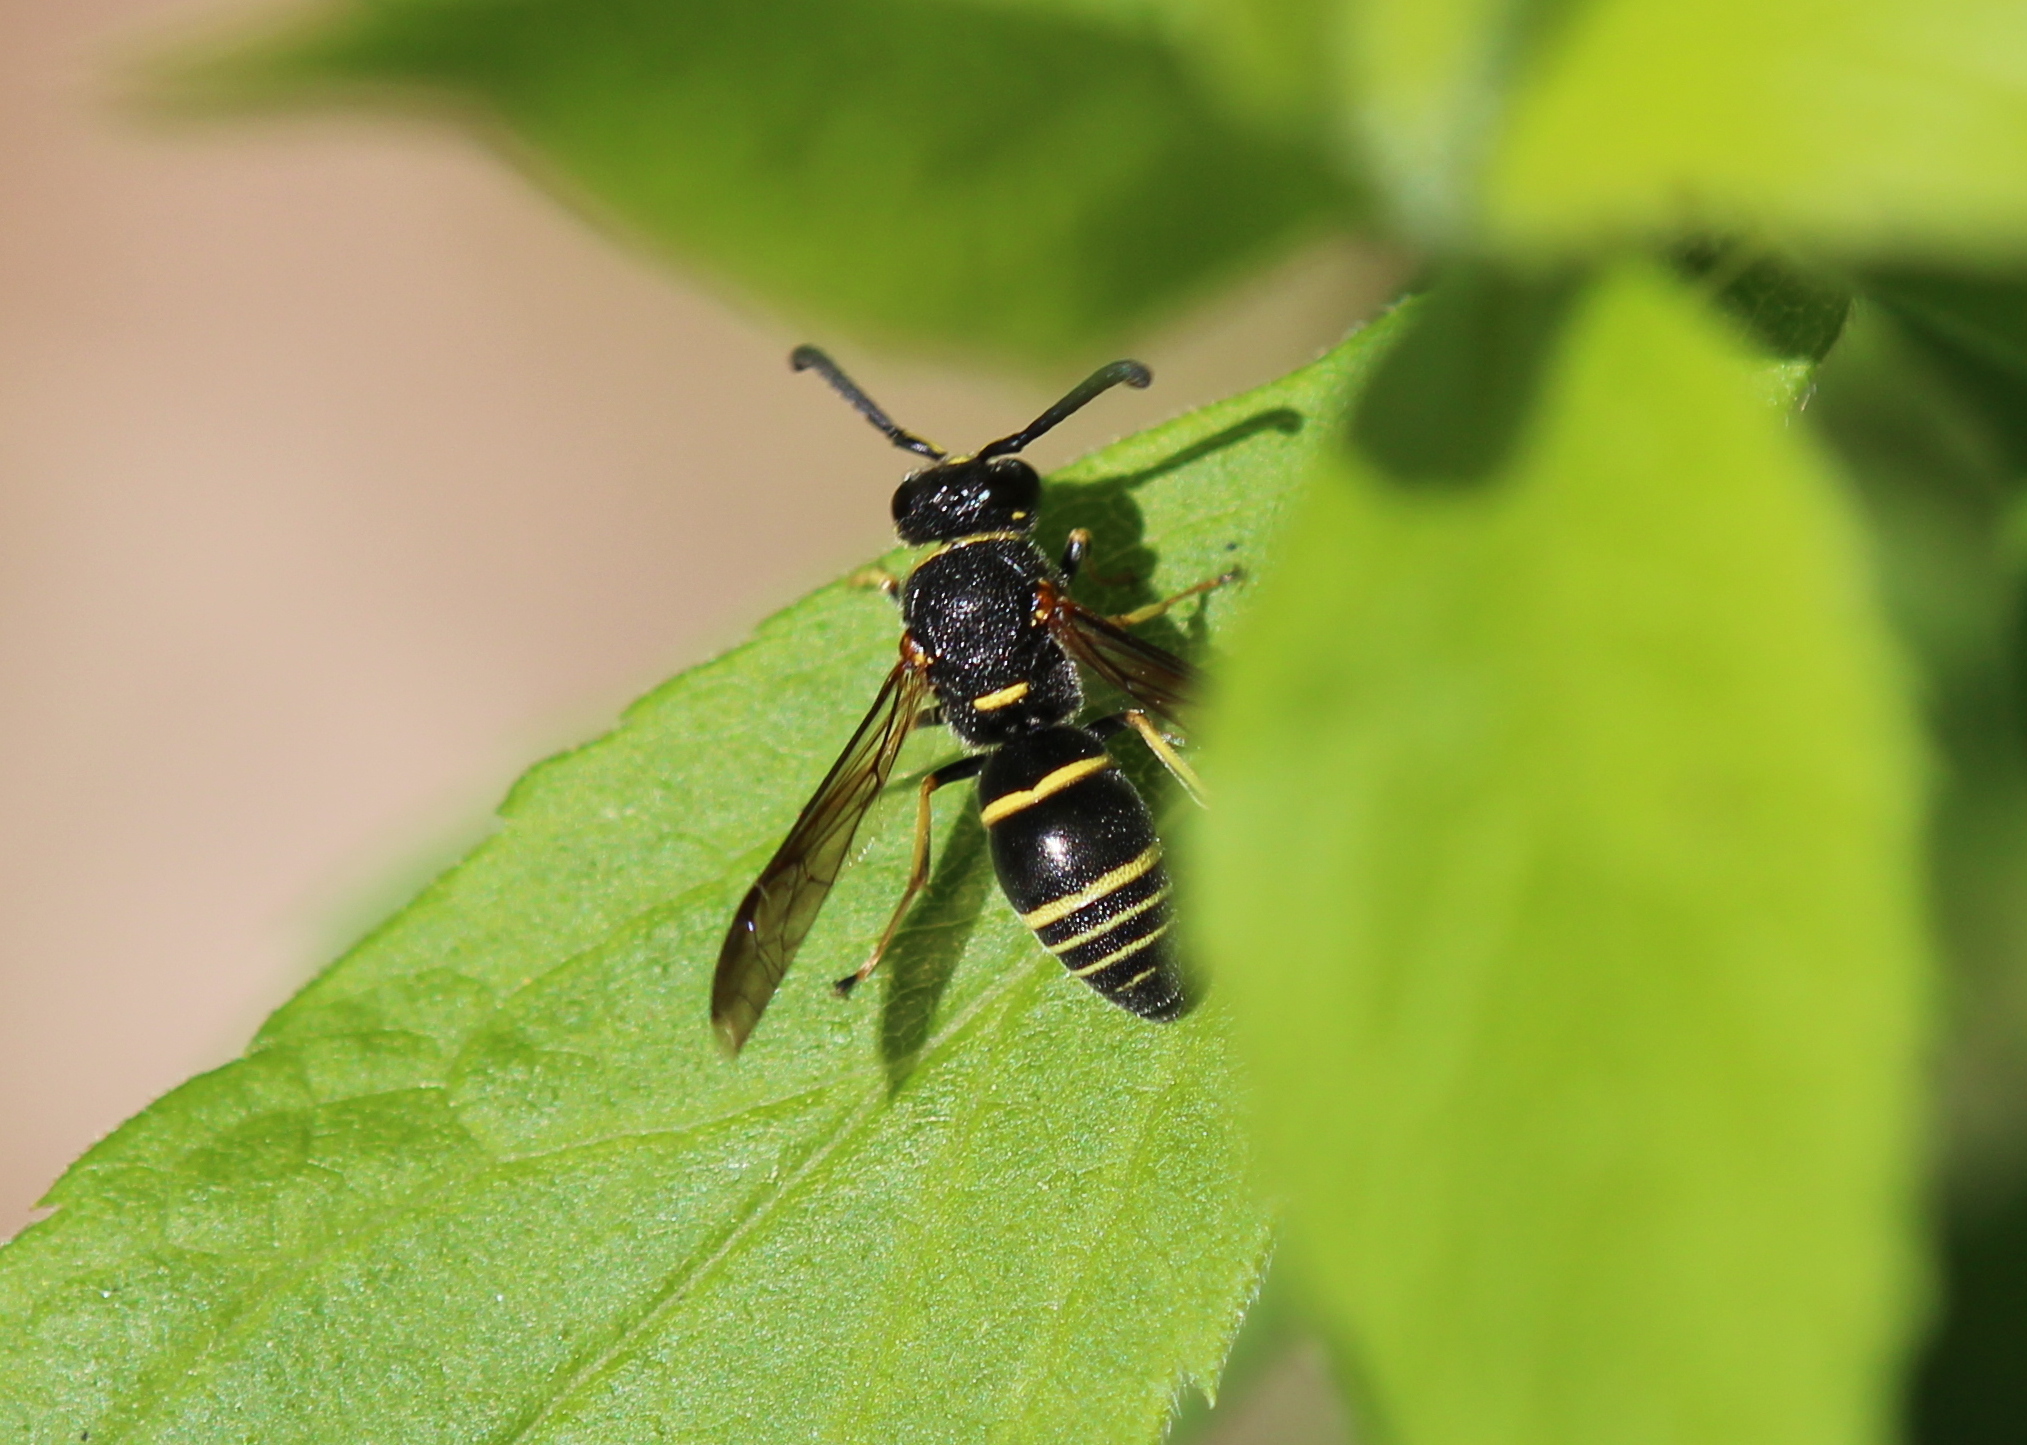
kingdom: Animalia
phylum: Arthropoda
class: Insecta
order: Hymenoptera
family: Eumenidae
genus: Euodynerus
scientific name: Euodynerus foraminatus
